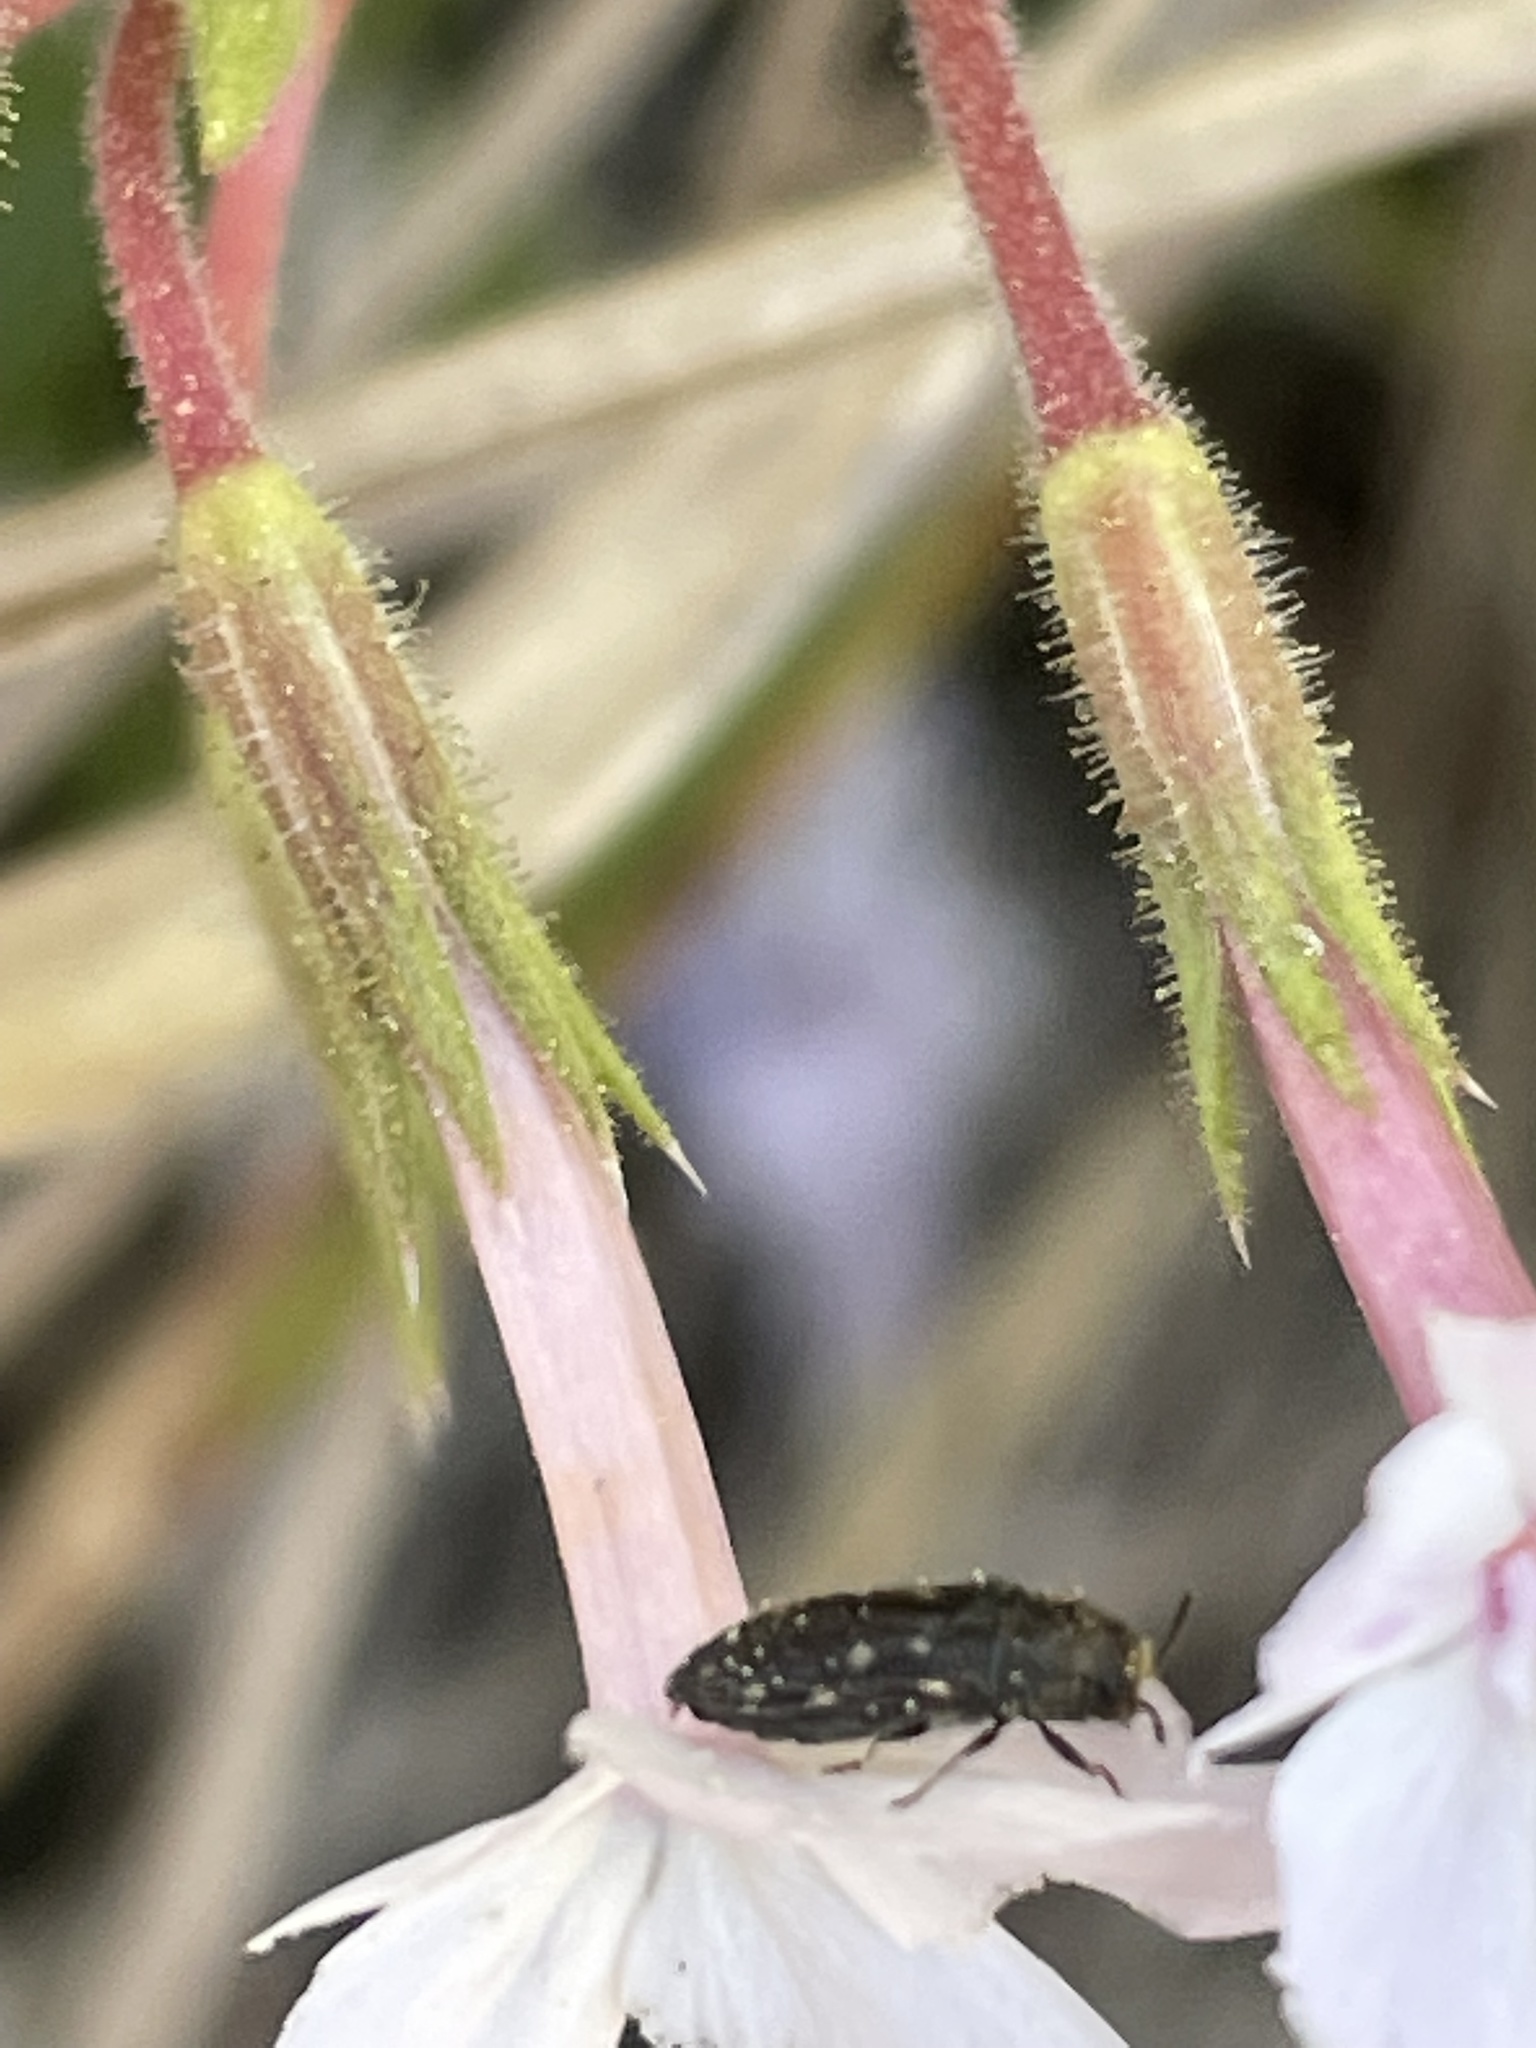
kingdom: Animalia
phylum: Arthropoda
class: Insecta
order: Coleoptera
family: Buprestidae
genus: Acmaeodera
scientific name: Acmaeodera tubulus
